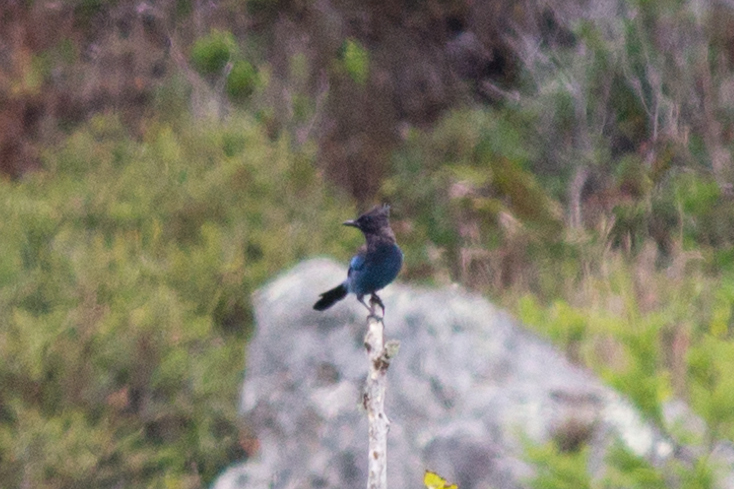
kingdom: Animalia
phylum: Chordata
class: Aves
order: Passeriformes
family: Corvidae
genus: Cyanocitta
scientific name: Cyanocitta stelleri
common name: Steller's jay
